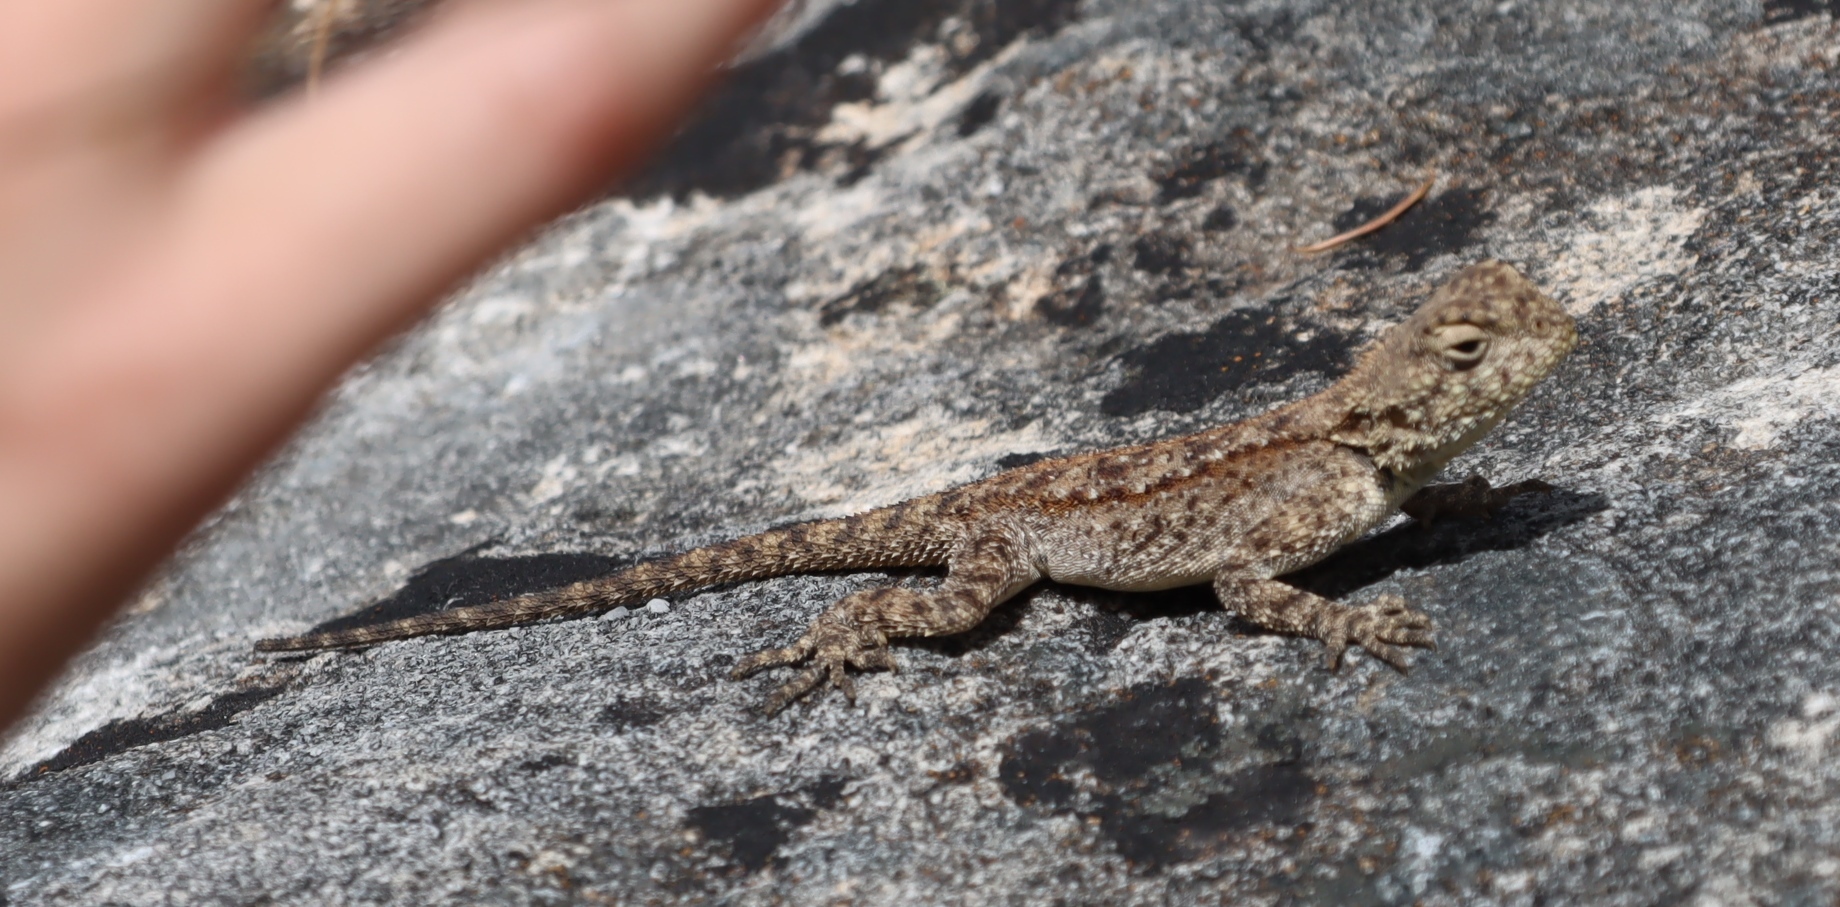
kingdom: Animalia
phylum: Chordata
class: Squamata
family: Agamidae
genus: Agama
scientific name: Agama atra
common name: Southern african rock agama
